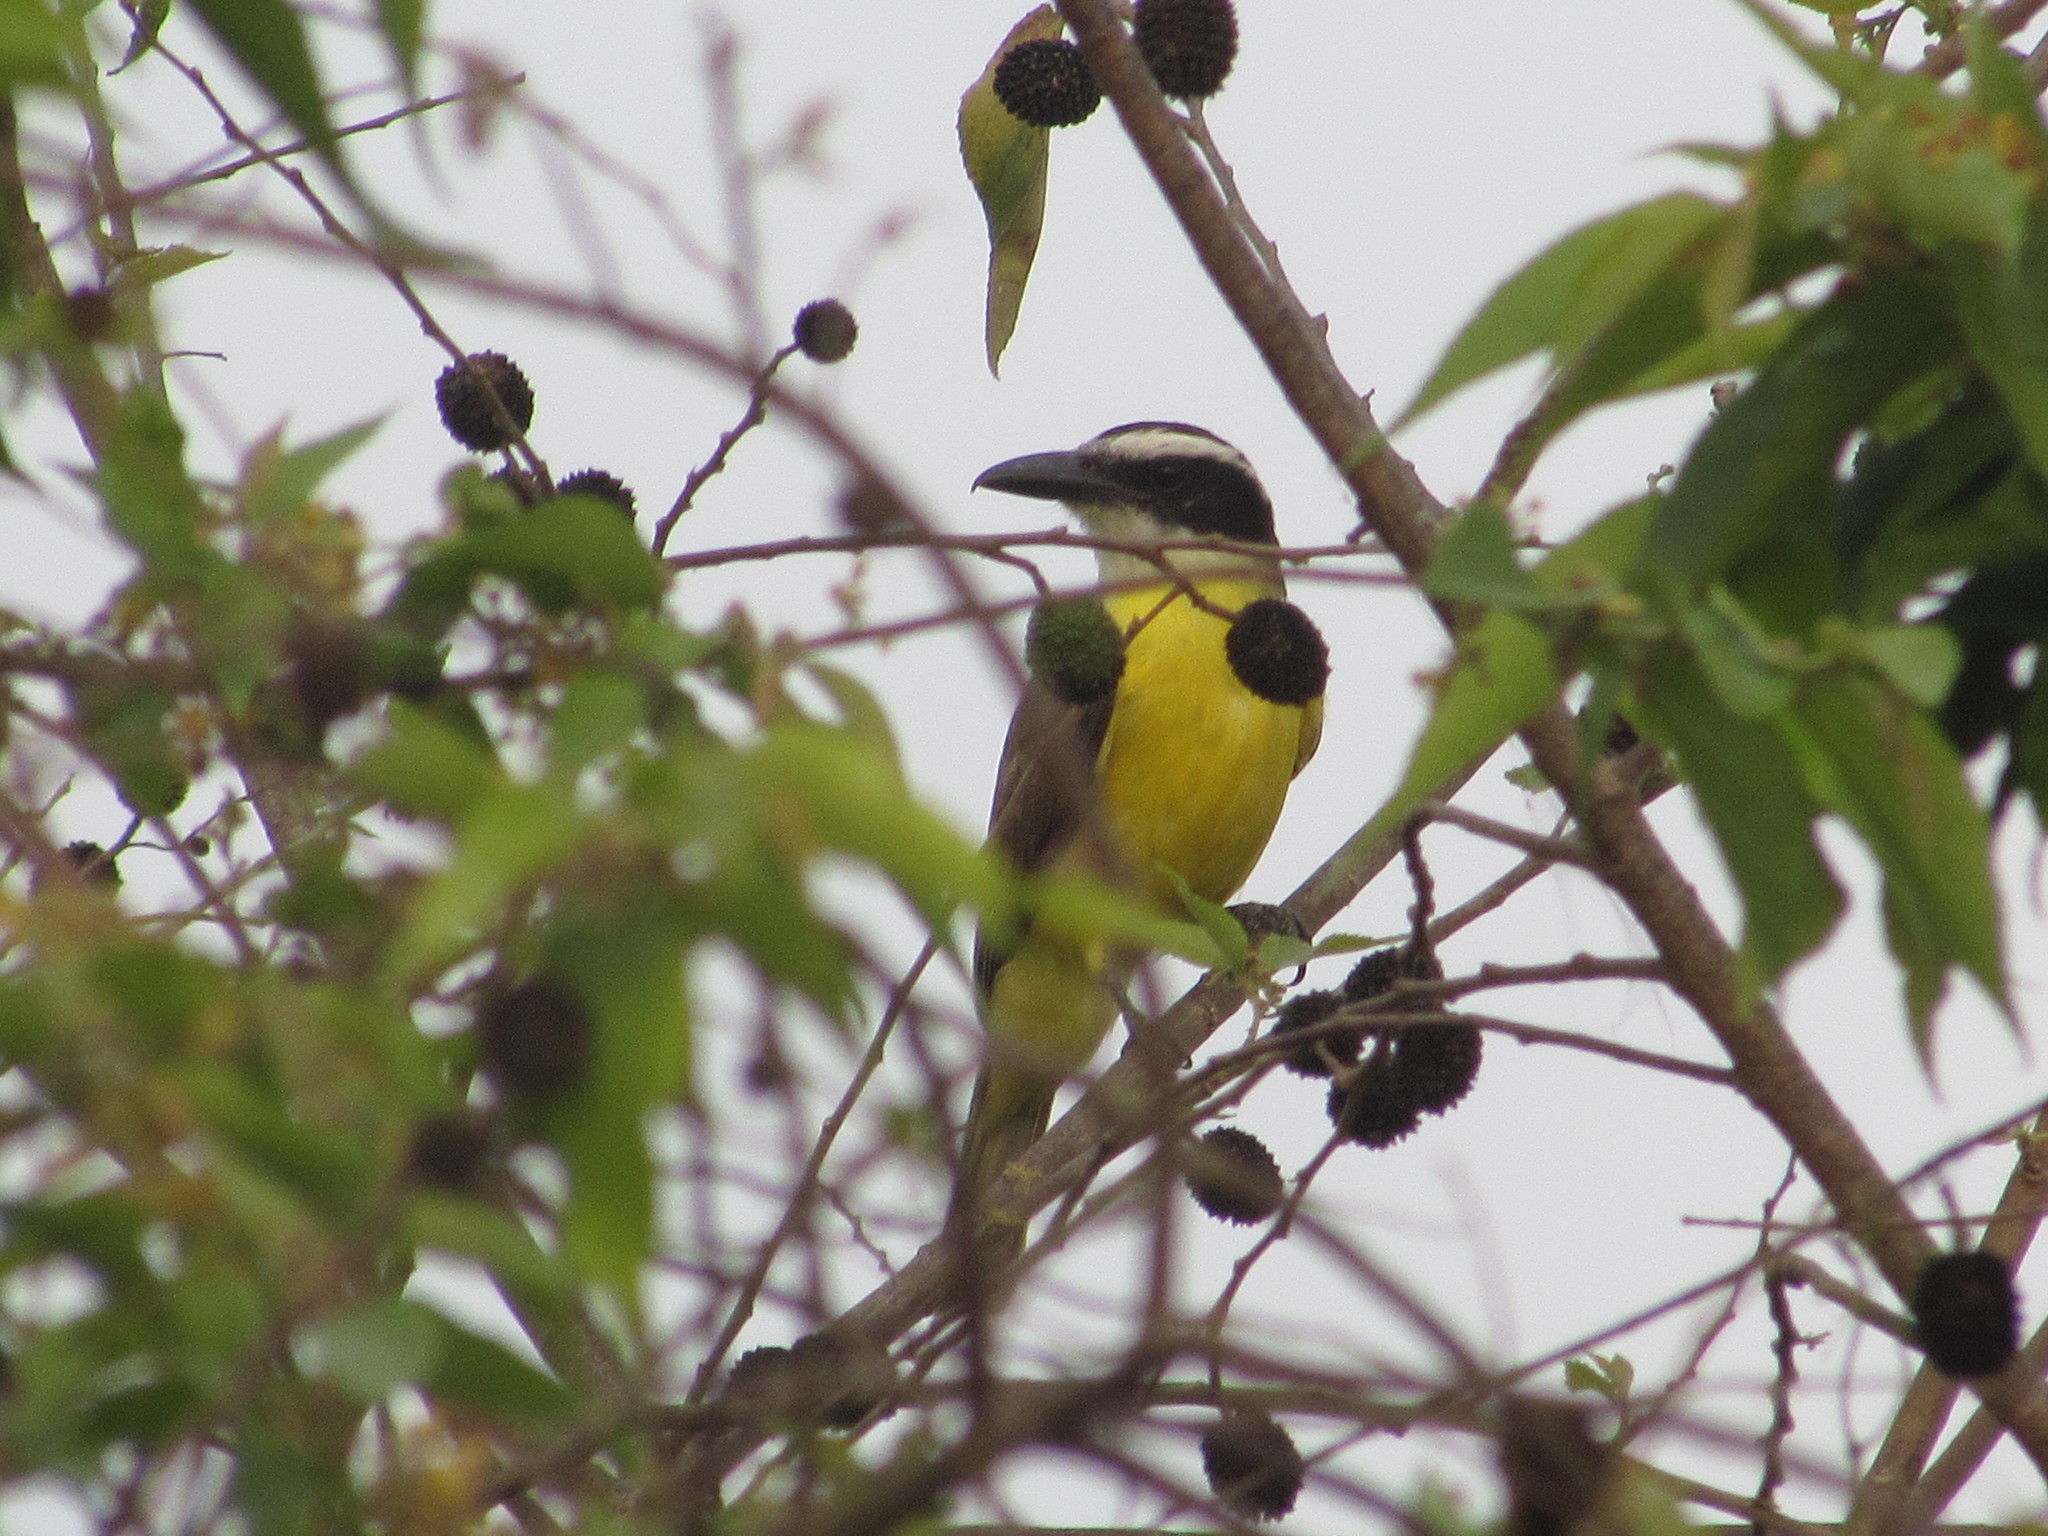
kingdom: Animalia
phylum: Chordata
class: Aves
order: Passeriformes
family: Tyrannidae
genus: Megarynchus
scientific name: Megarynchus pitangua
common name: Boat-billed flycatcher
